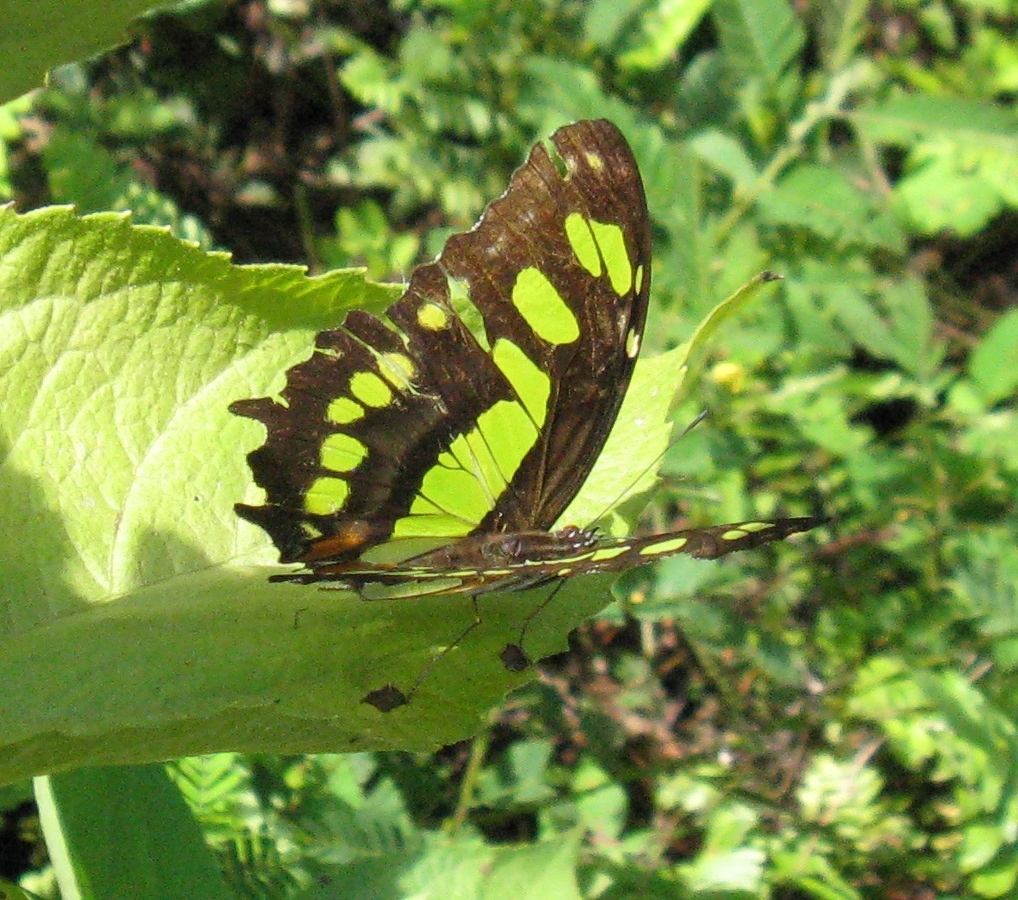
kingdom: Animalia
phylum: Arthropoda
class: Insecta
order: Lepidoptera
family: Nymphalidae
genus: Siproeta
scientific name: Siproeta stelenes
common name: Malachite
